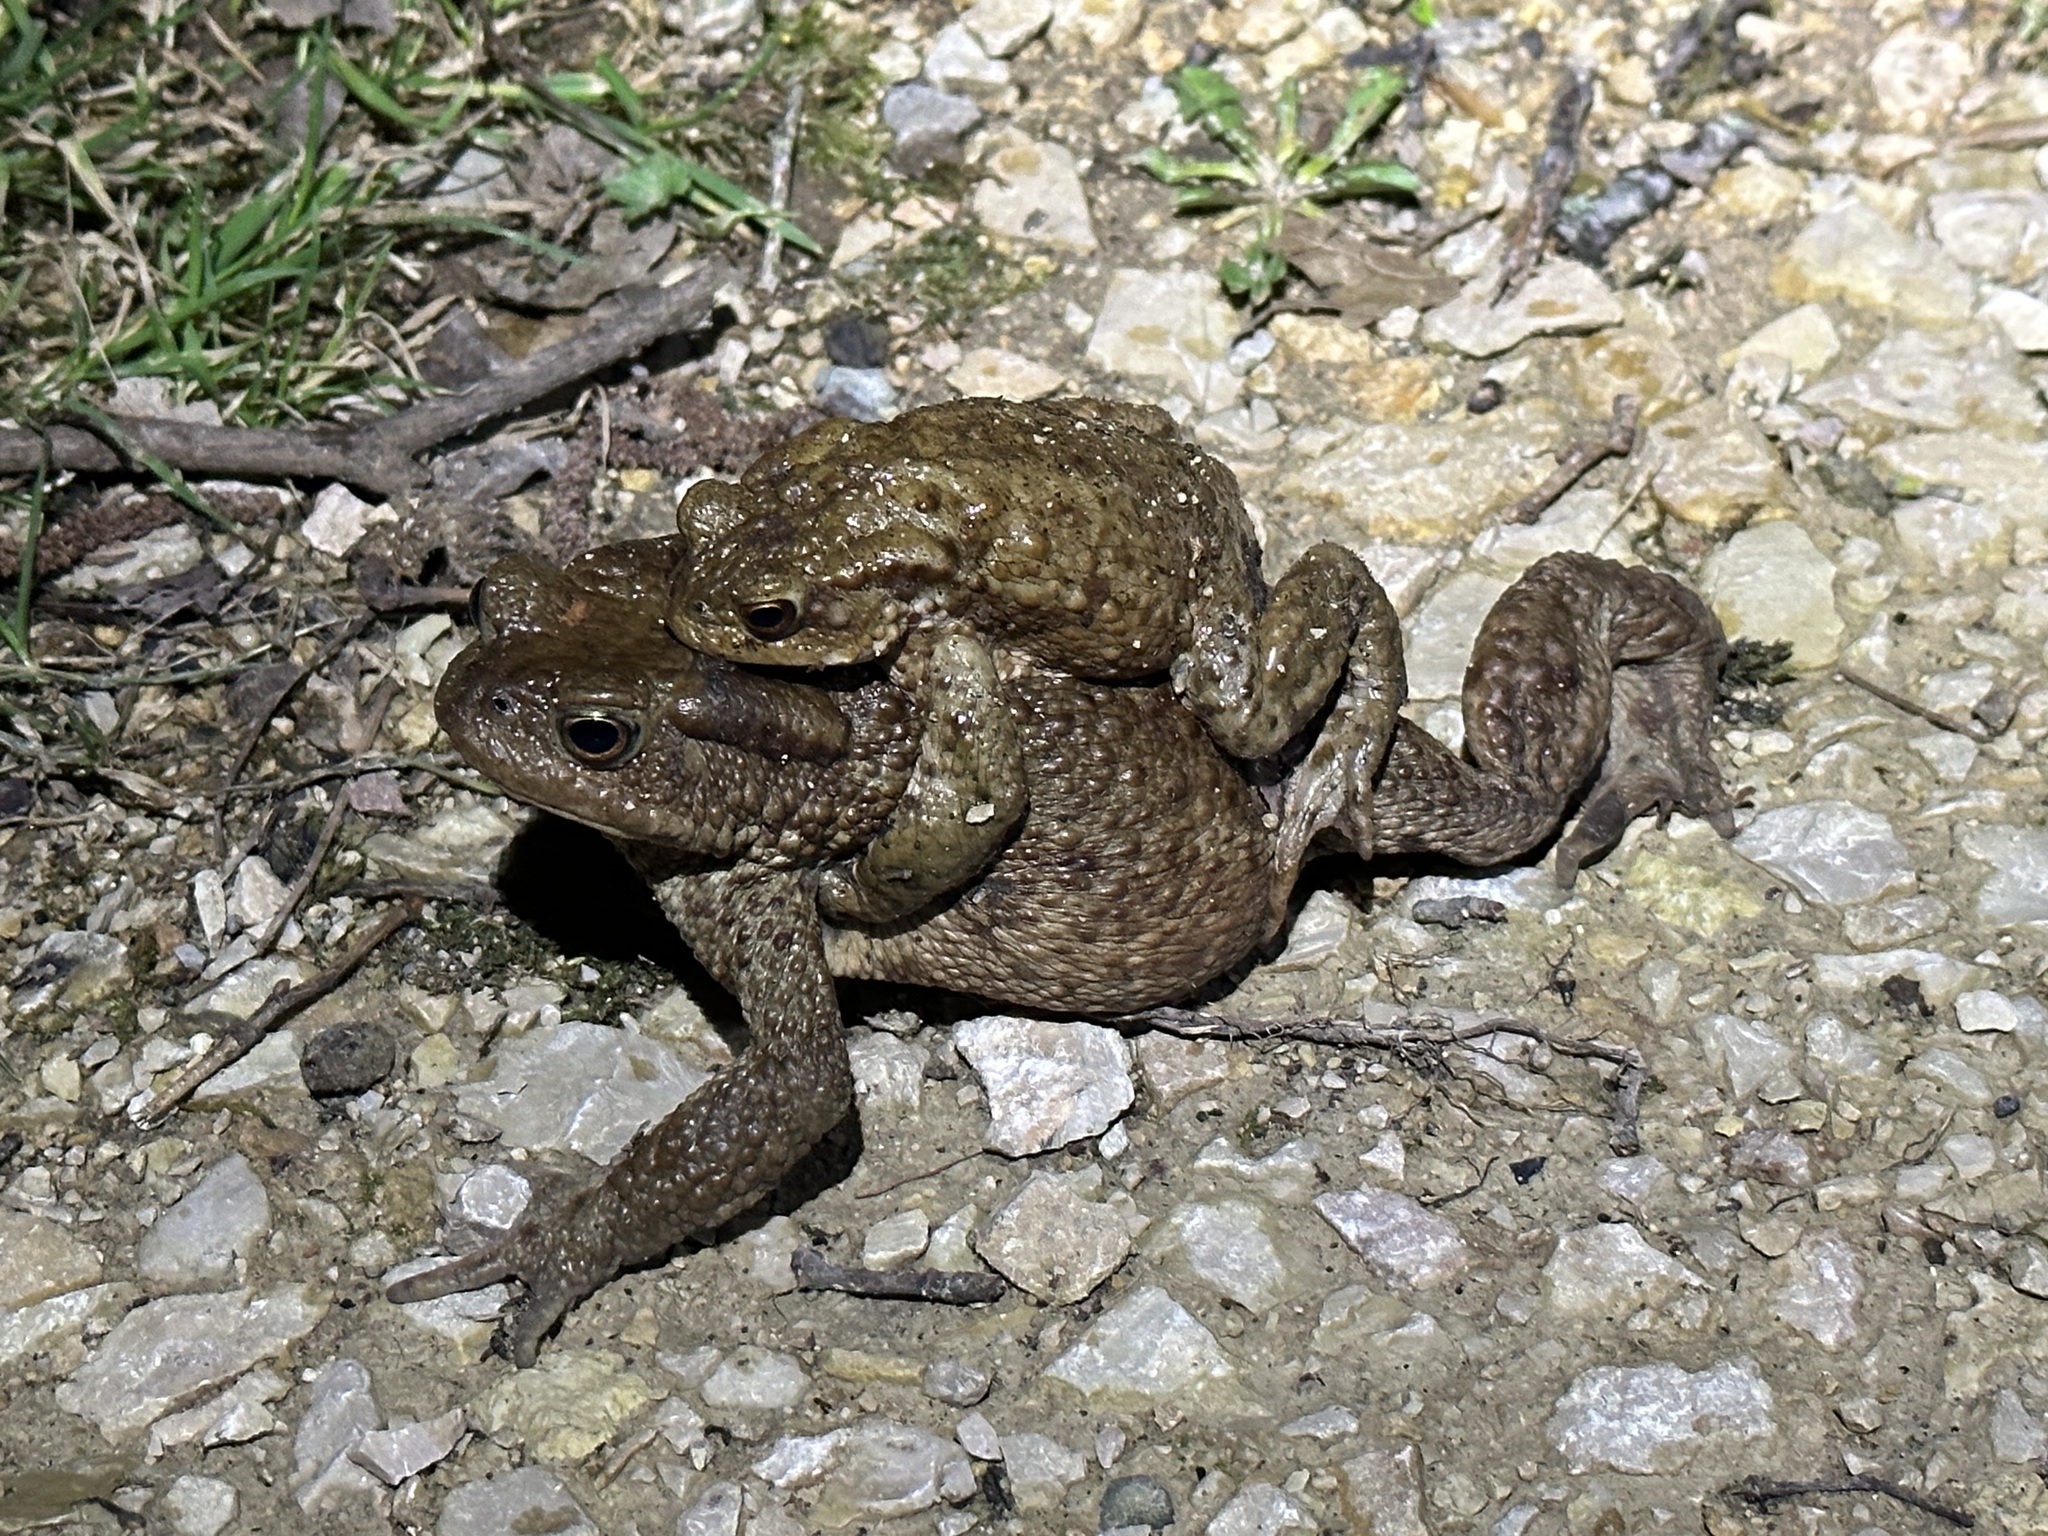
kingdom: Animalia
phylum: Chordata
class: Amphibia
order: Anura
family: Bufonidae
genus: Bufo
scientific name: Bufo bufo
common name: Common toad
